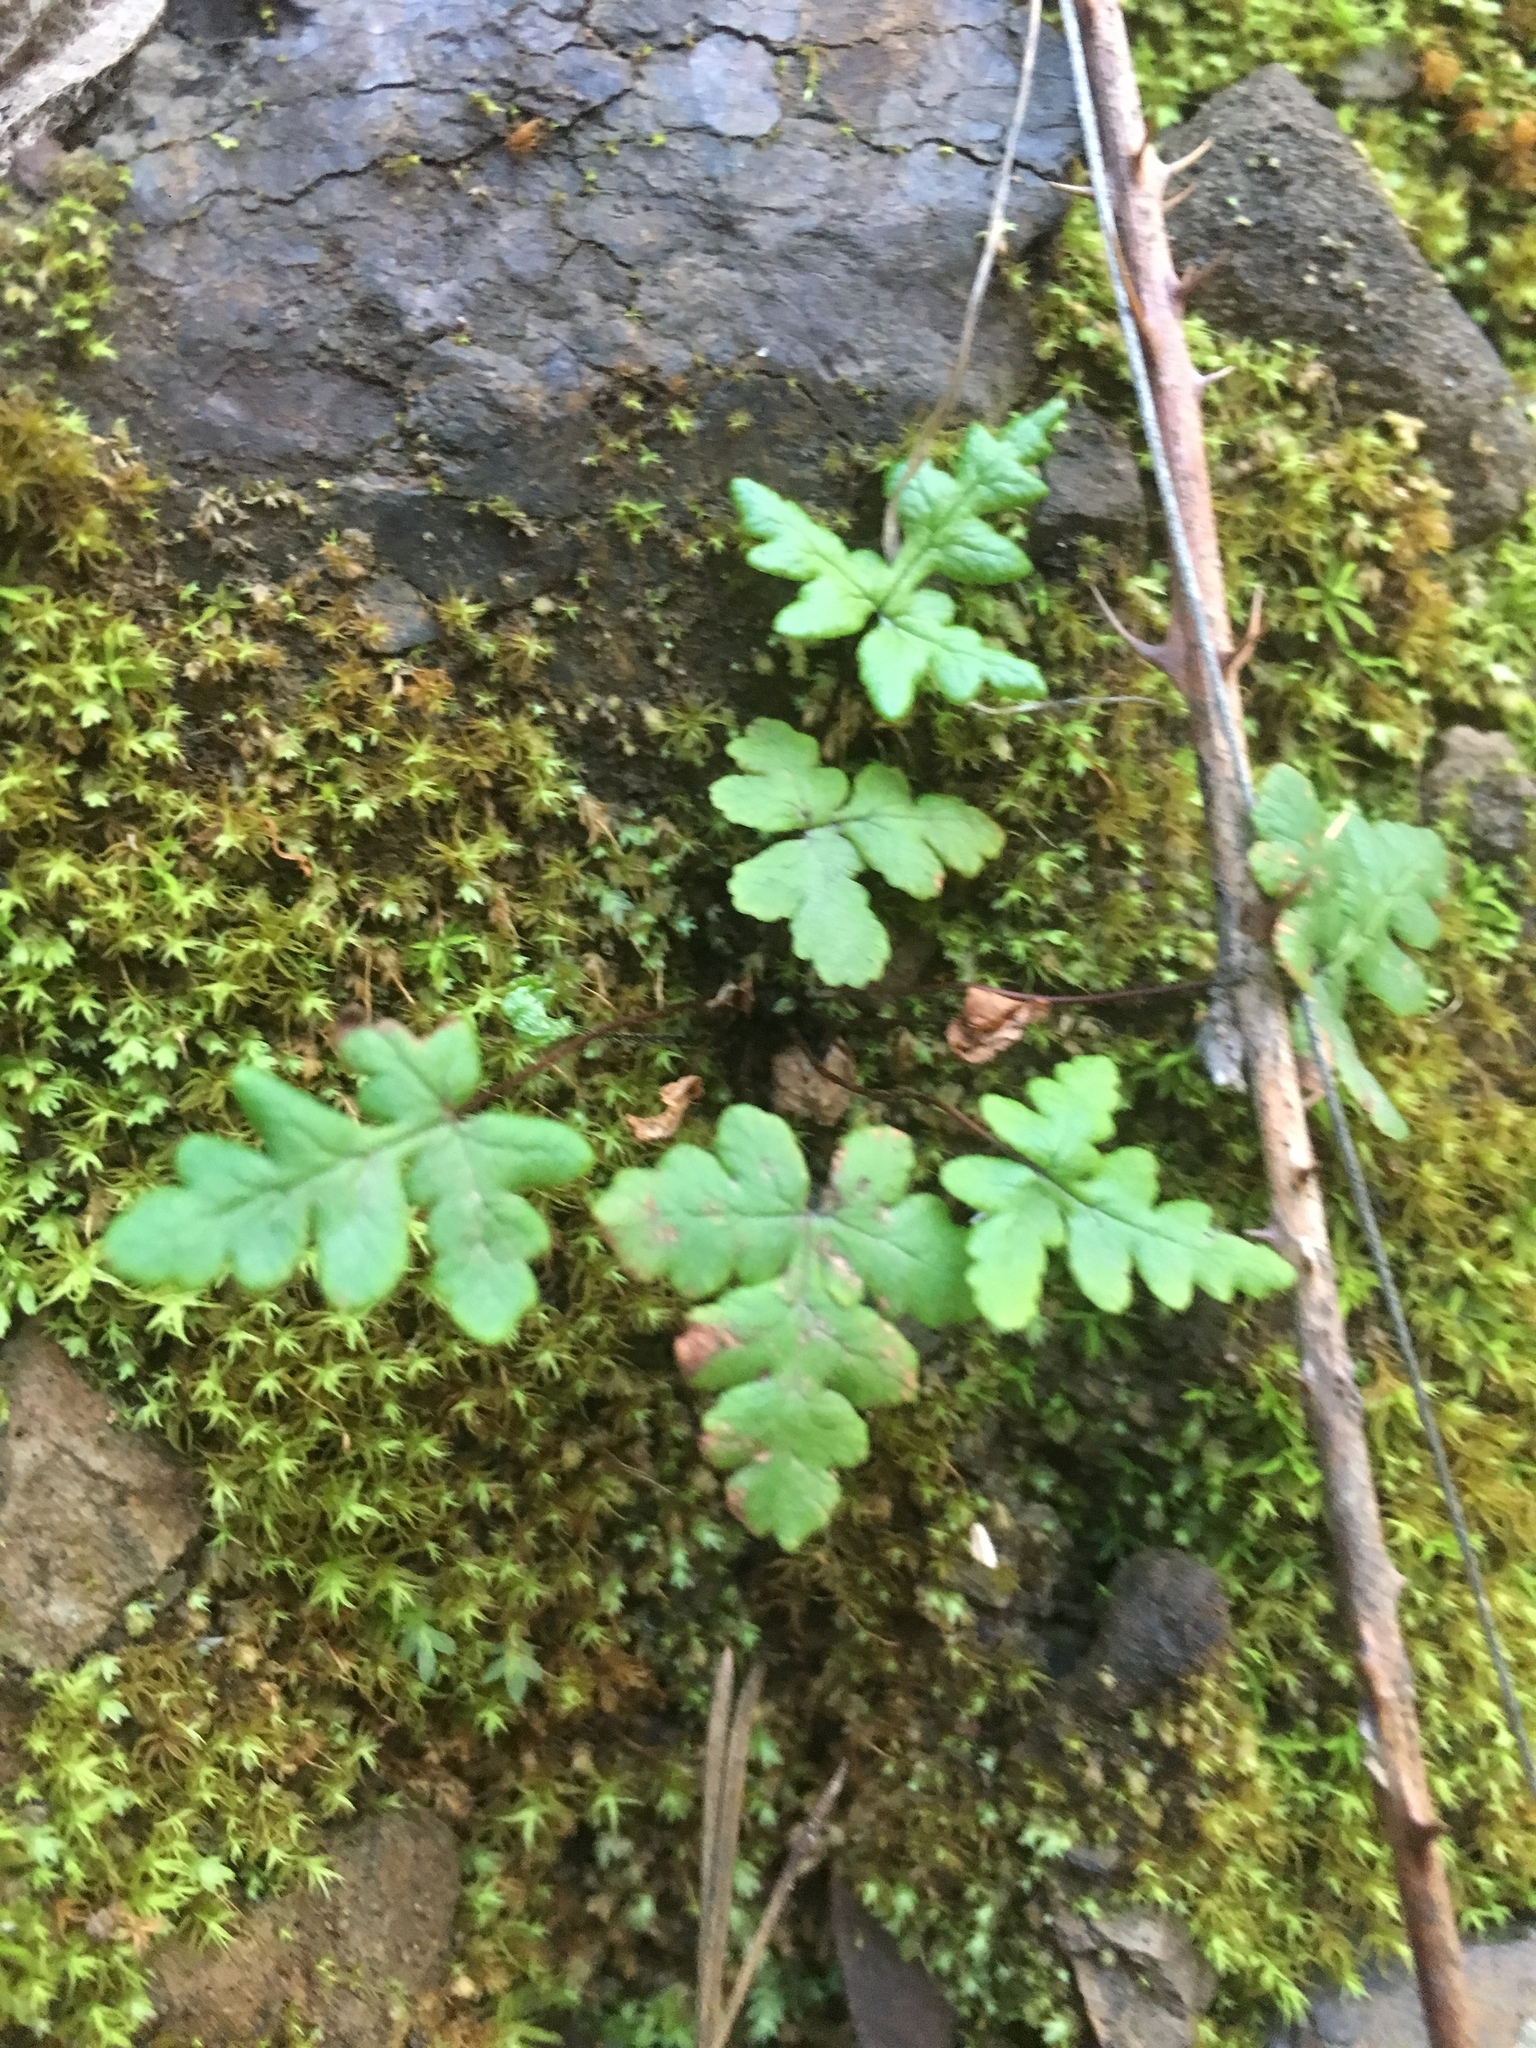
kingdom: Plantae
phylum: Tracheophyta
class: Polypodiopsida
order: Polypodiales
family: Pteridaceae
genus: Pentagramma
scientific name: Pentagramma triangularis
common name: Gold fern
